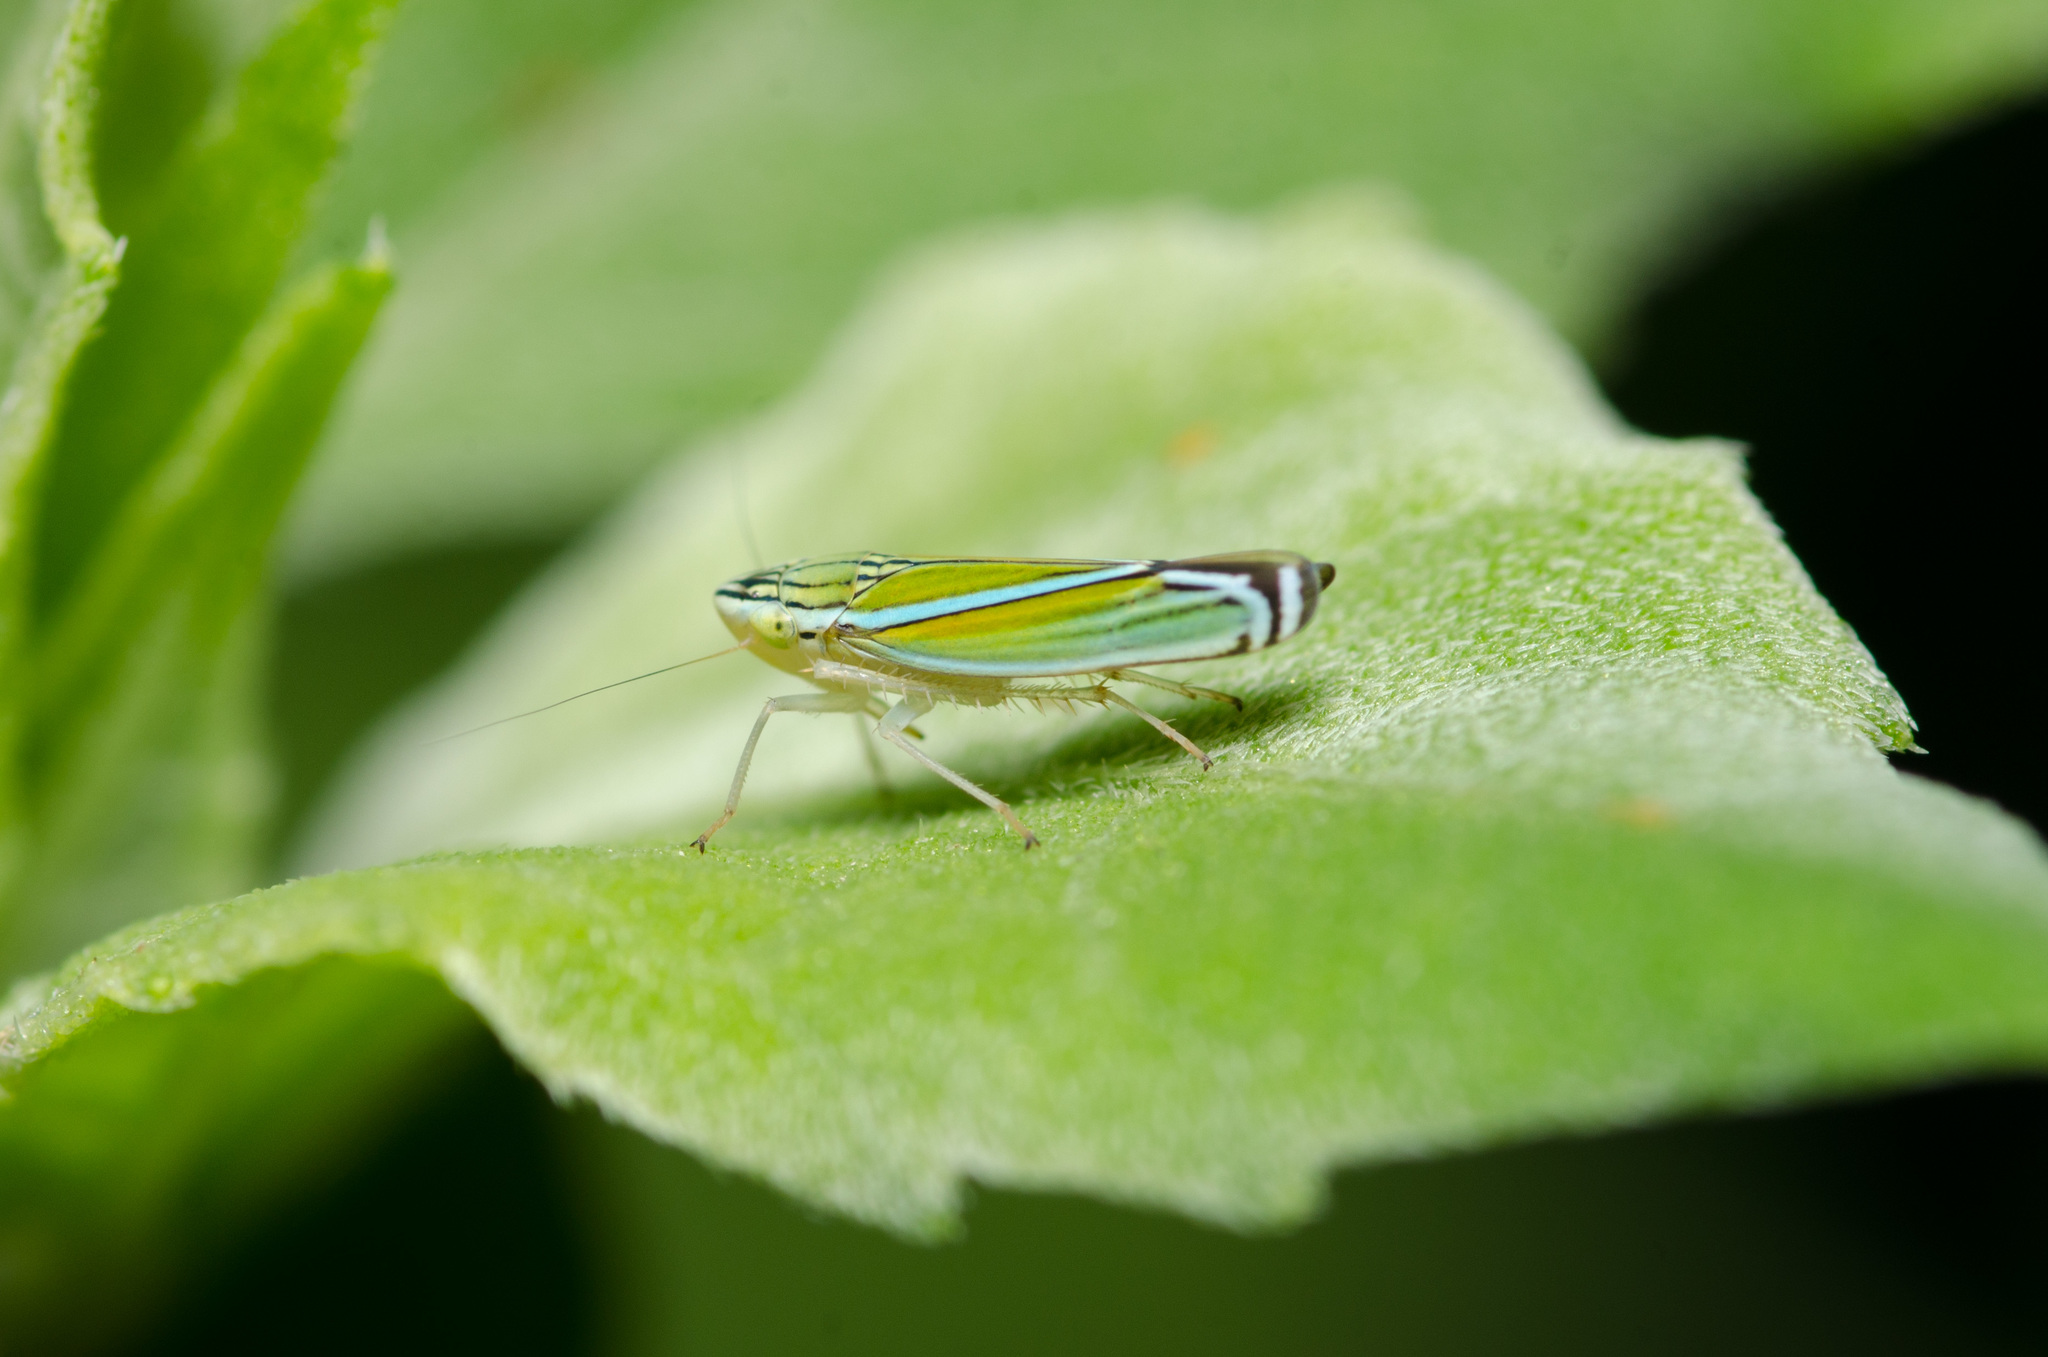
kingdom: Animalia
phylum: Arthropoda
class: Insecta
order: Hemiptera
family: Cicadellidae
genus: Sibovia
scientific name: Sibovia occatoria
